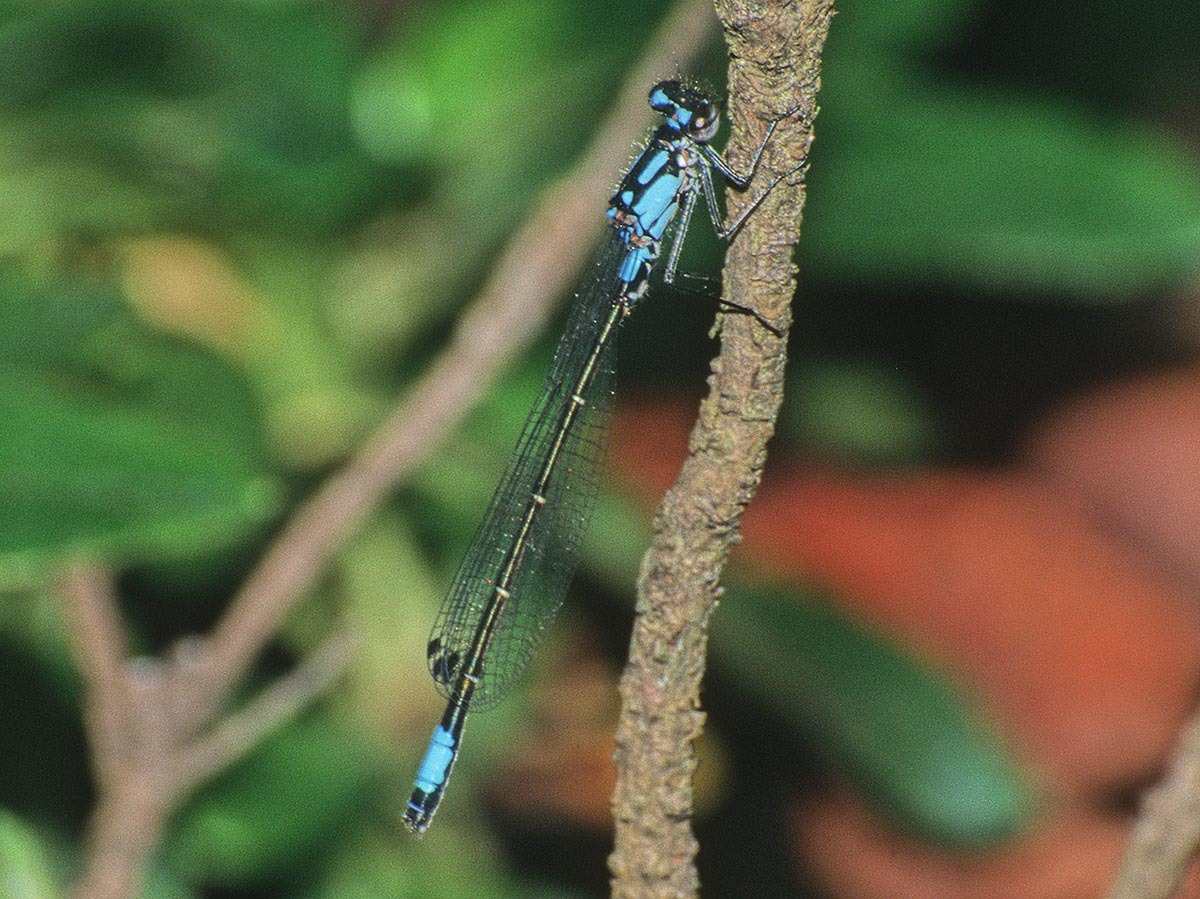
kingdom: Animalia
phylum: Arthropoda
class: Insecta
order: Odonata
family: Coenagrionidae
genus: Zoniagrion
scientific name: Zoniagrion exclamationis
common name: Exclamation damsel
